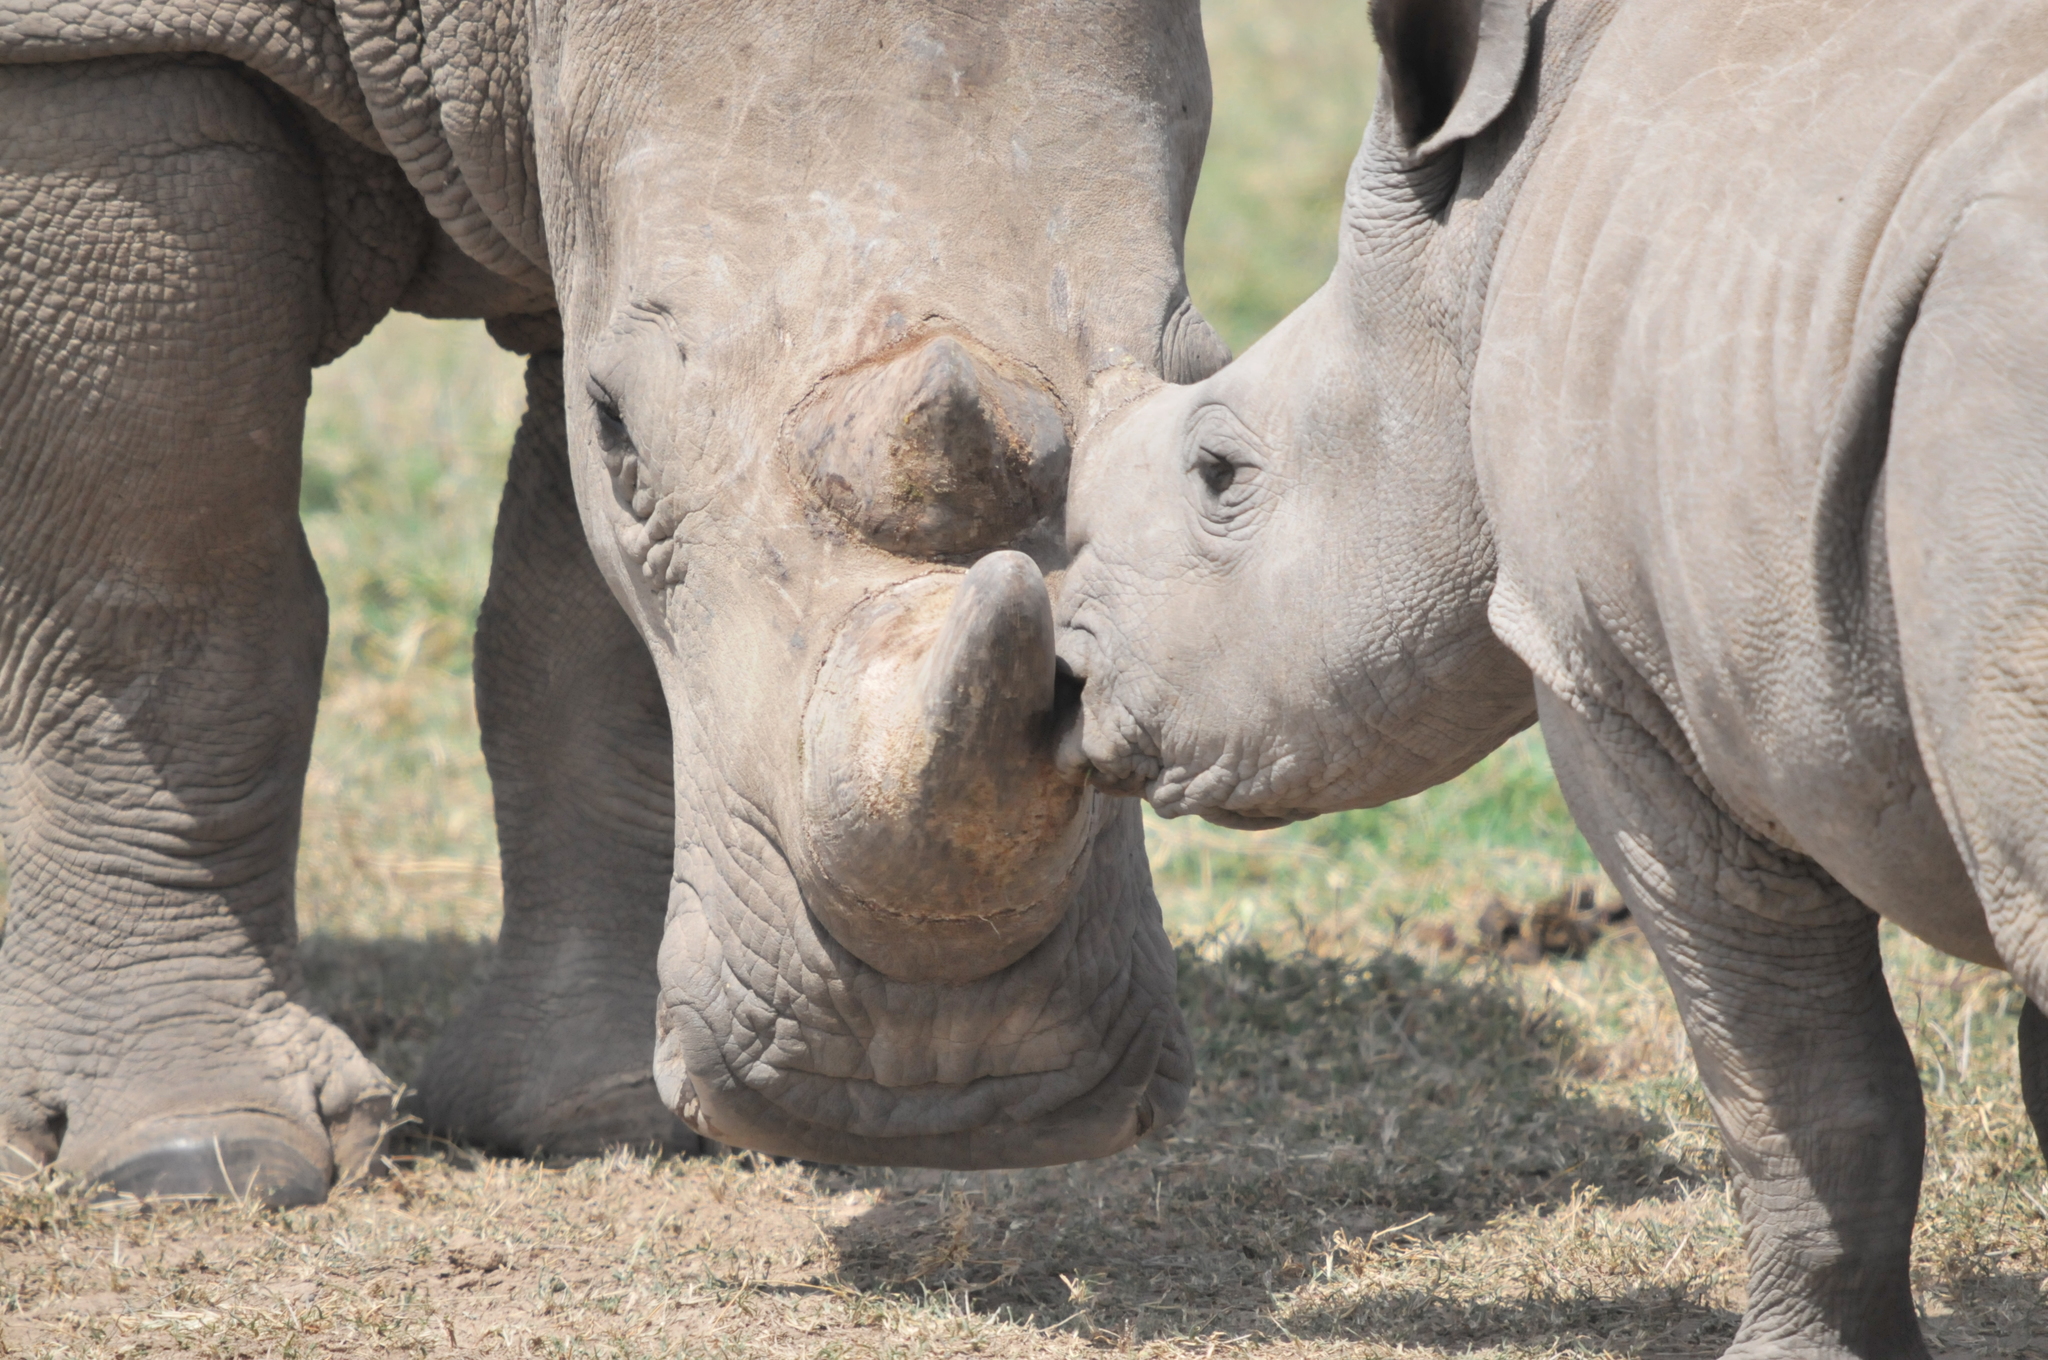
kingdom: Animalia
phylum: Chordata
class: Mammalia
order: Perissodactyla
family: Rhinocerotidae
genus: Ceratotherium
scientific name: Ceratotherium simum
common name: White rhinoceros
